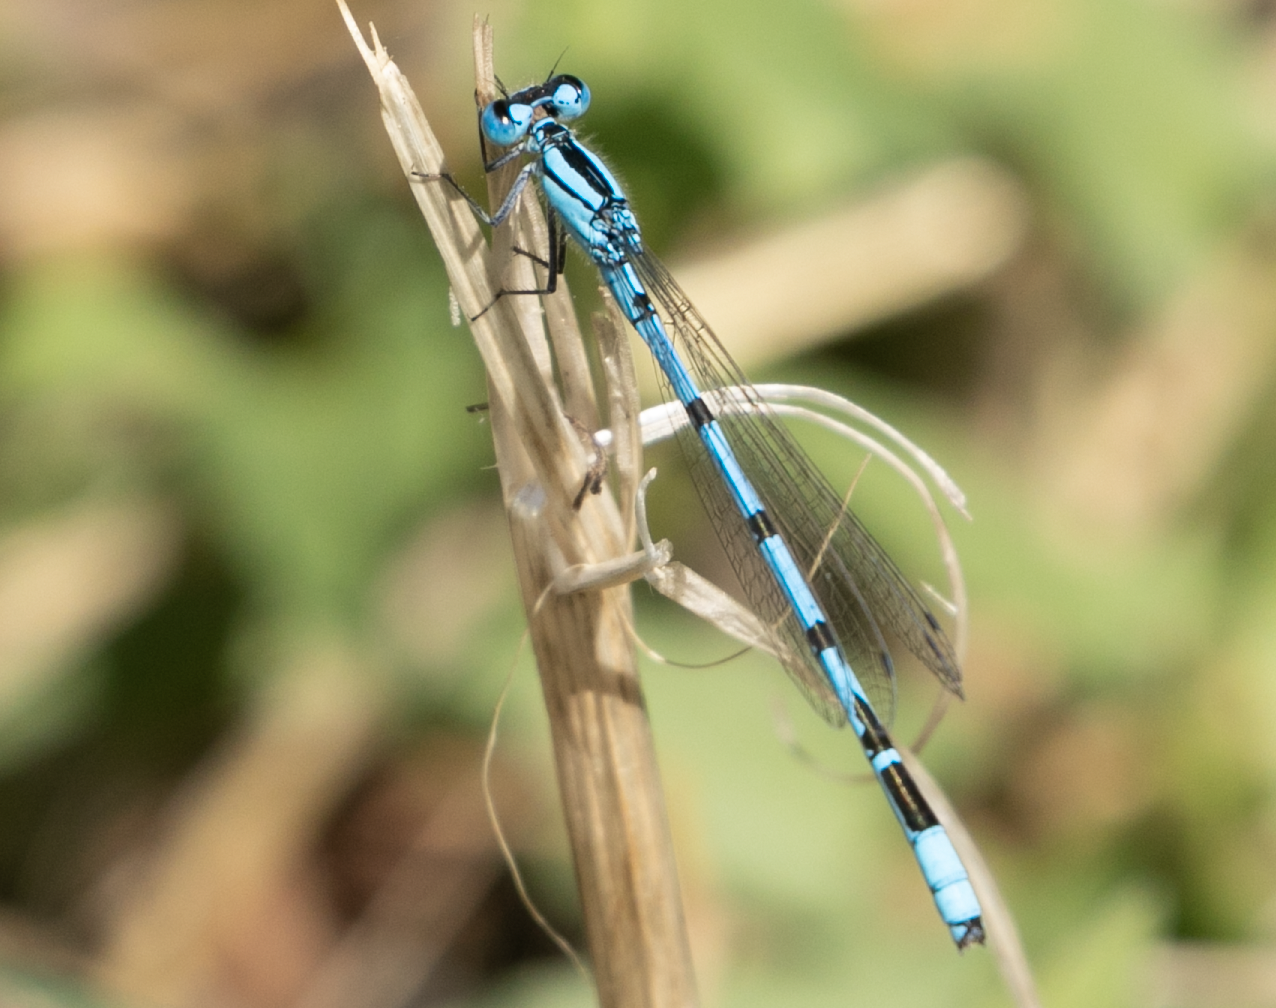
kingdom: Animalia
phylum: Arthropoda
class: Insecta
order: Odonata
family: Coenagrionidae
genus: Enallagma
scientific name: Enallagma cyathigerum
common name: Common blue damselfly
